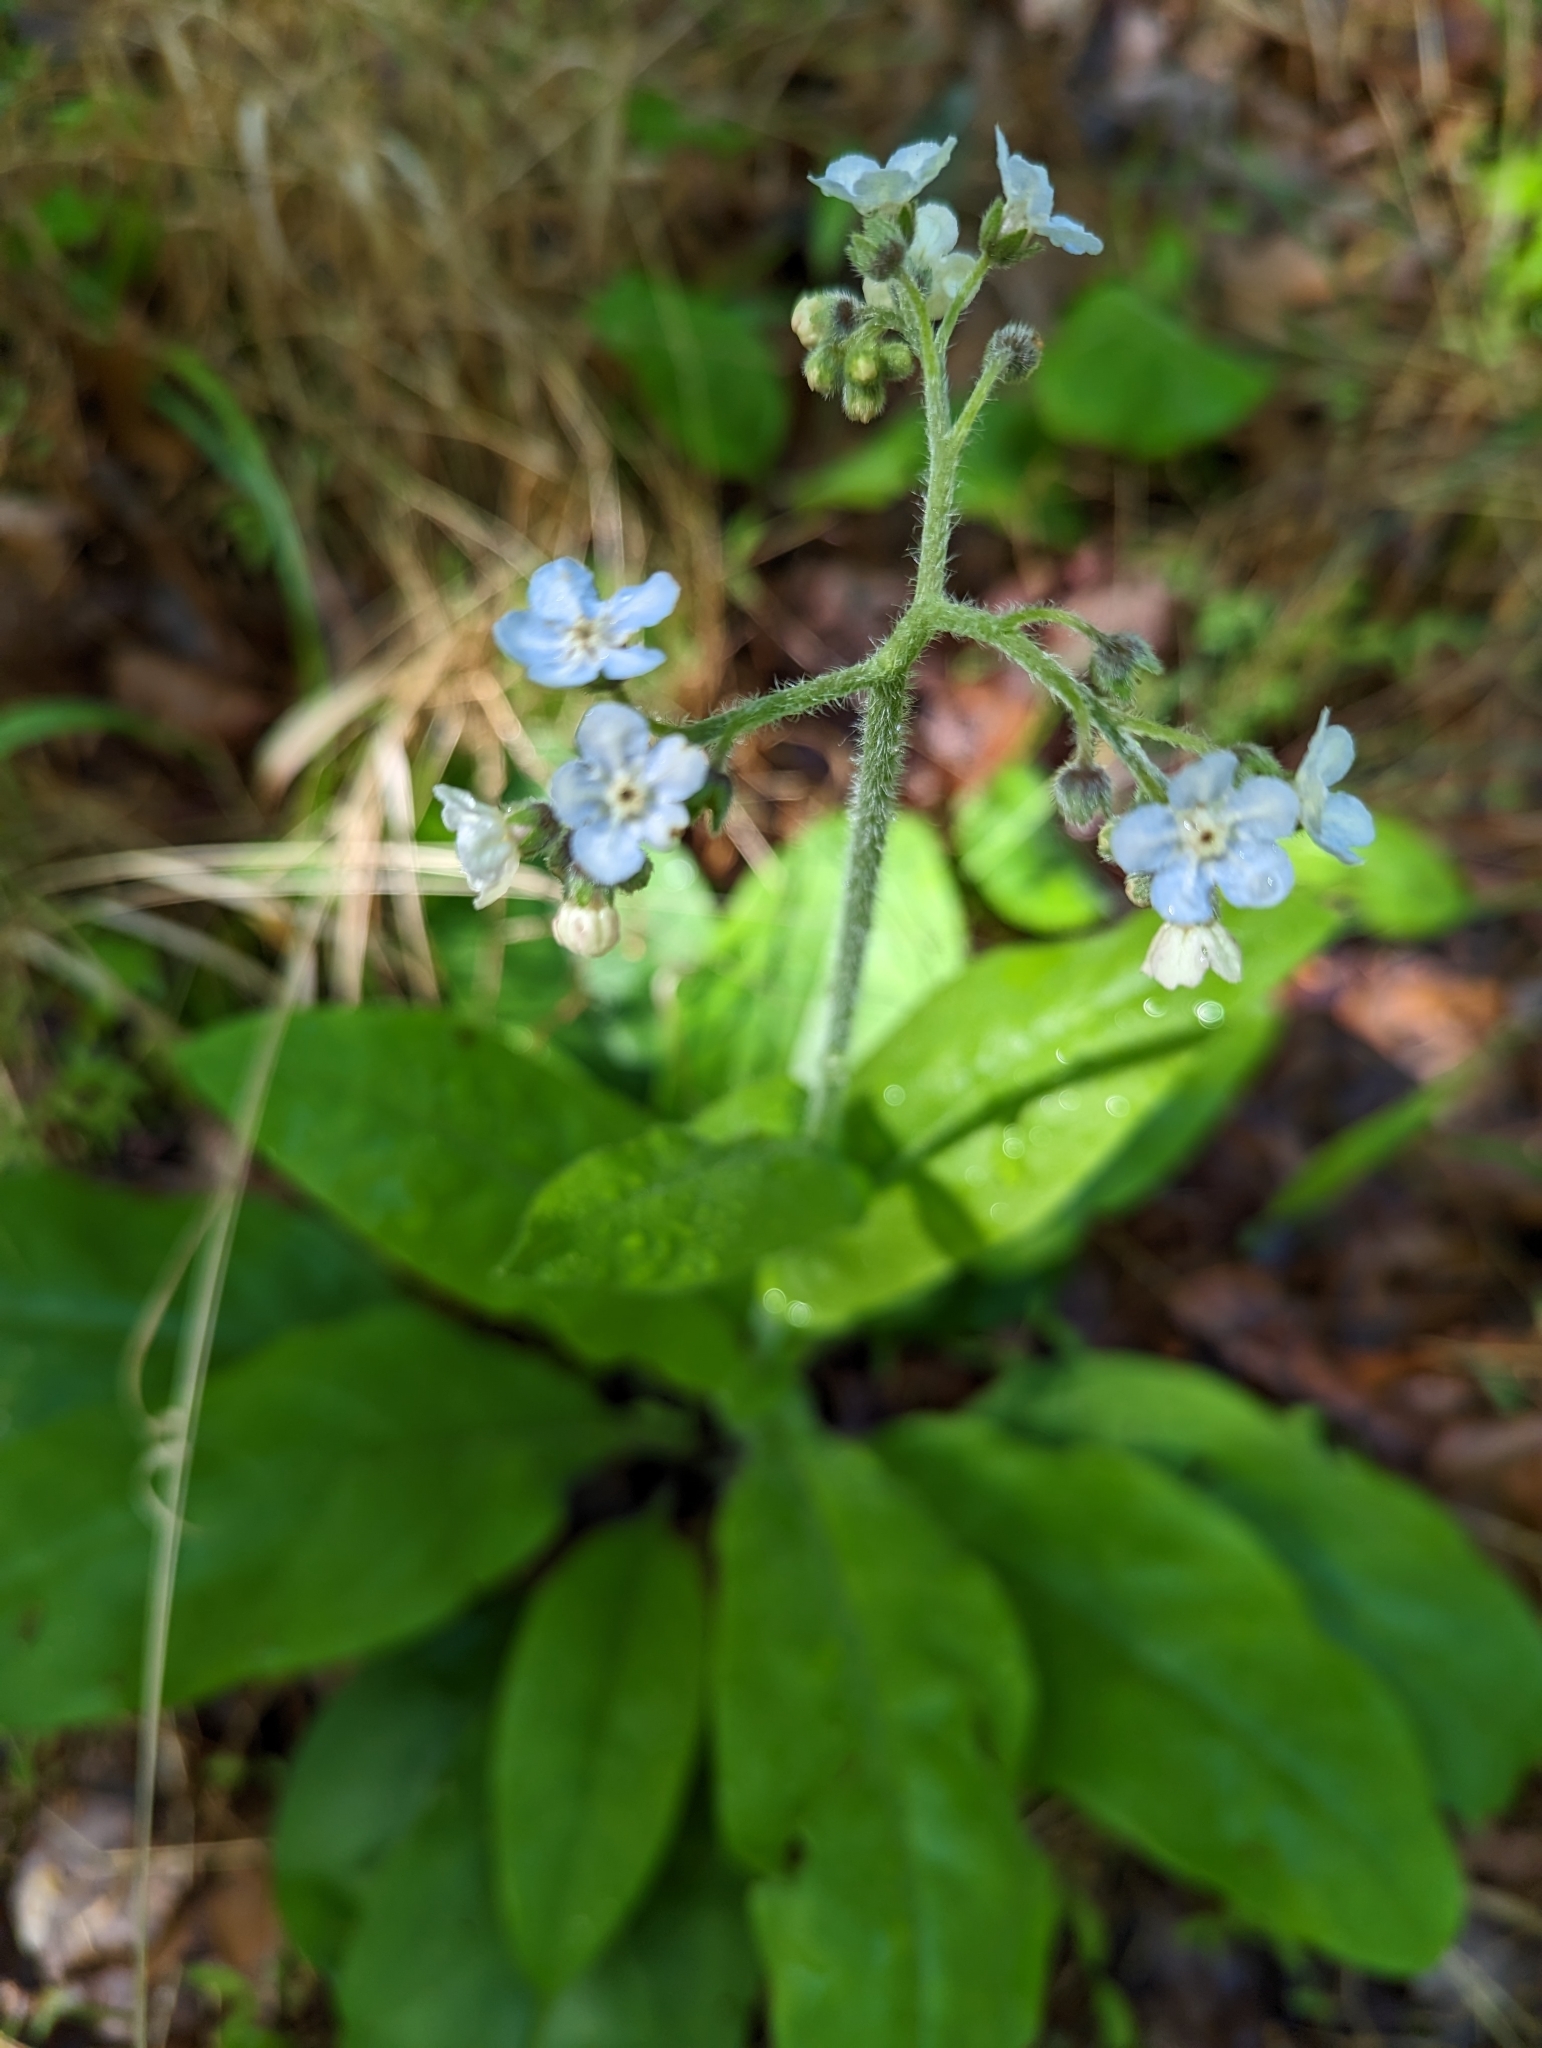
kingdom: Plantae
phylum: Tracheophyta
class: Magnoliopsida
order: Boraginales
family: Boraginaceae
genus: Andersonglossum
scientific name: Andersonglossum virginianum
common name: Wild comfrey
